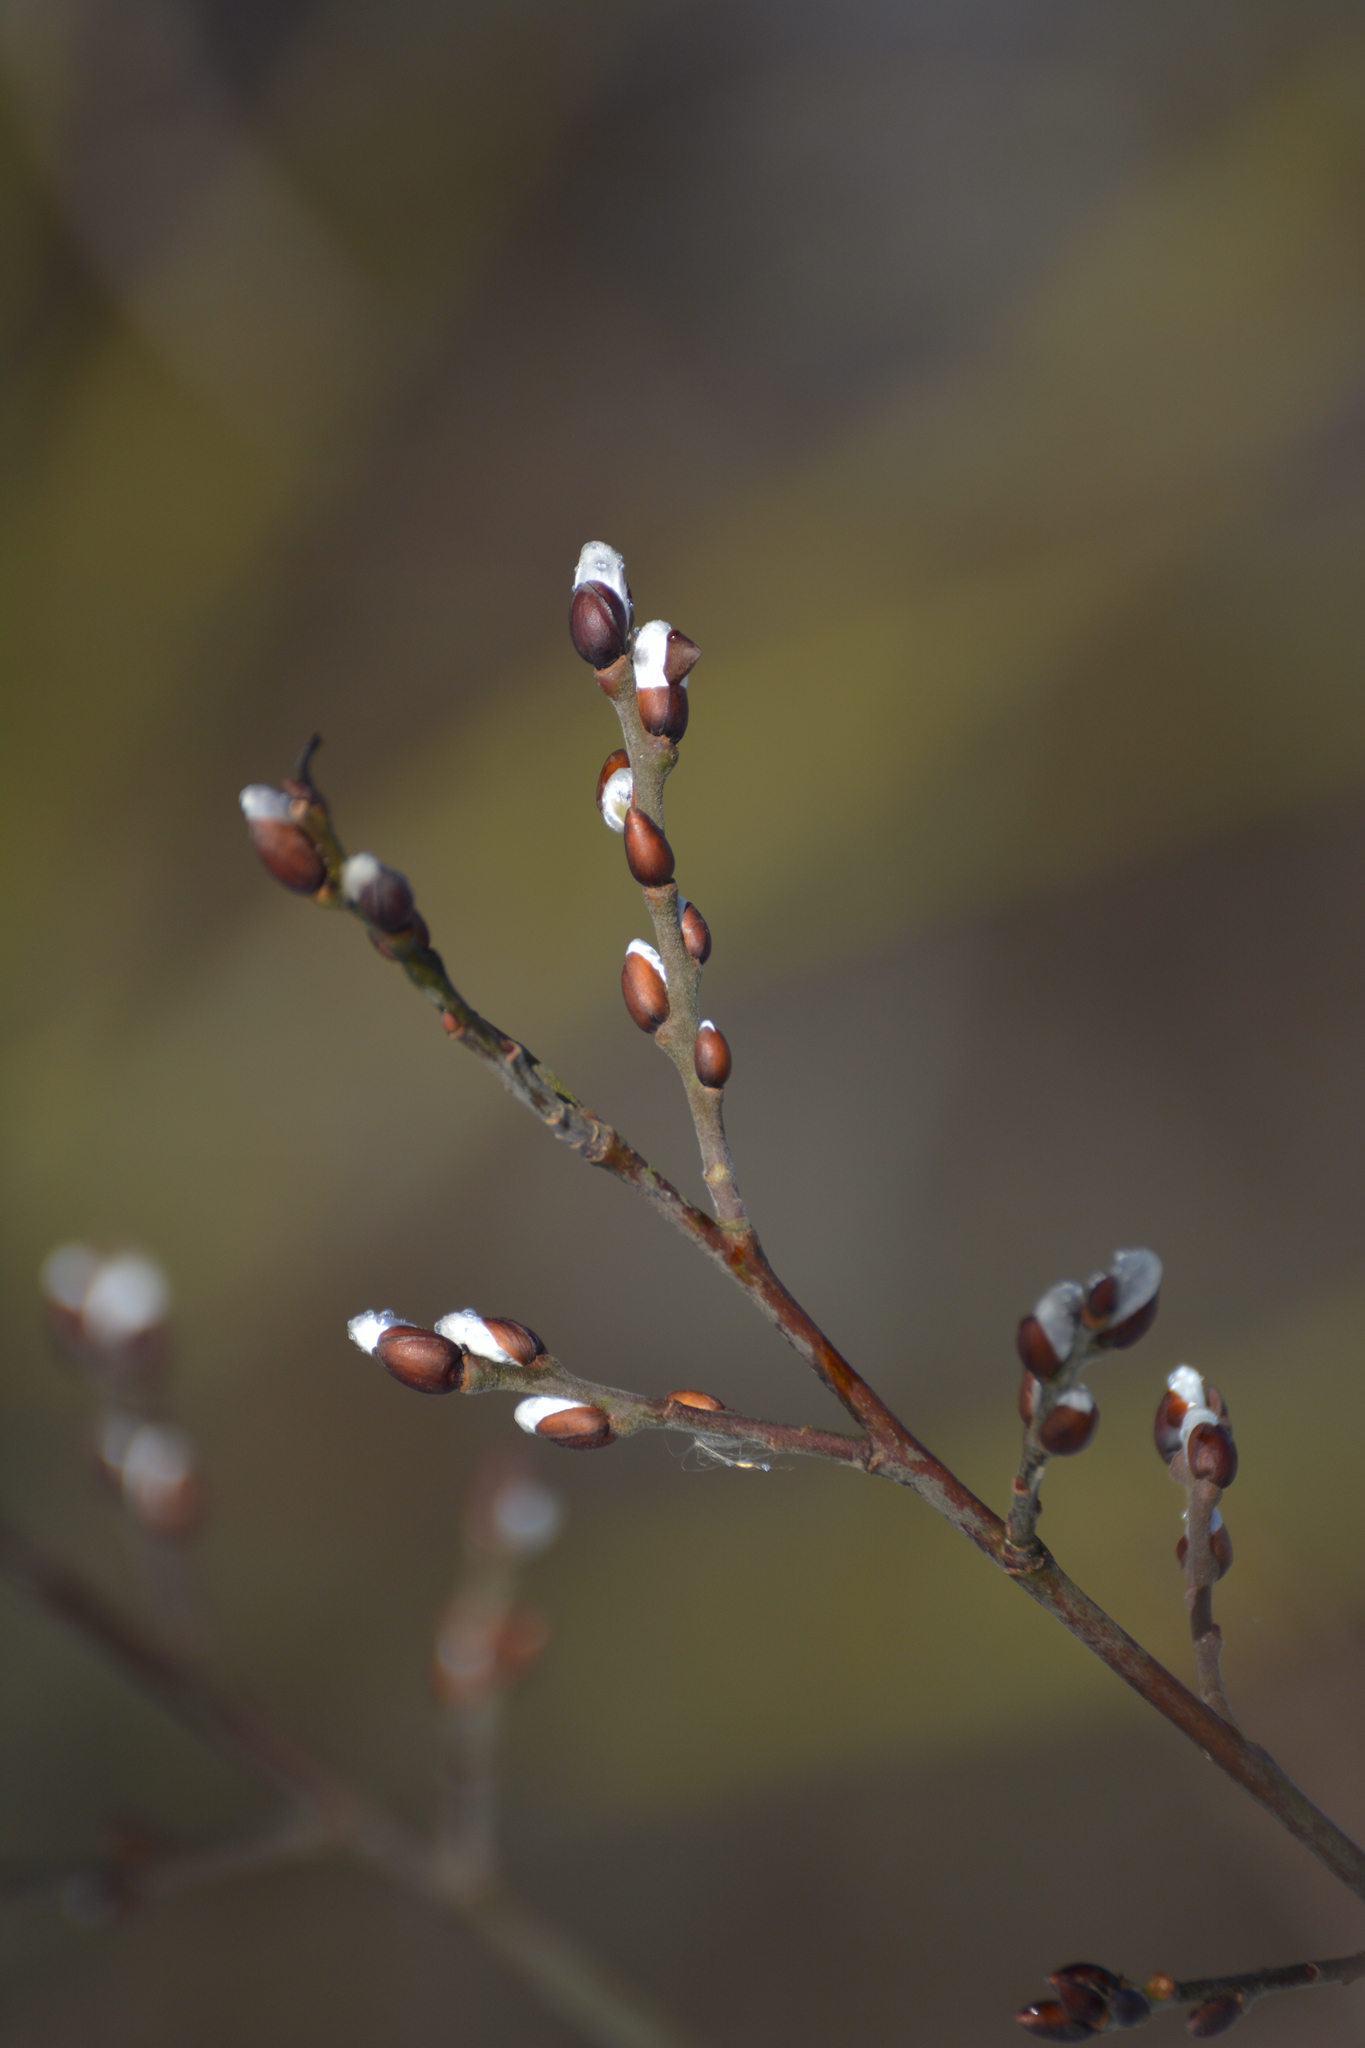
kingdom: Plantae
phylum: Tracheophyta
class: Magnoliopsida
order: Malpighiales
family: Salicaceae
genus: Salix
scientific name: Salix caprea
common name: Goat willow
